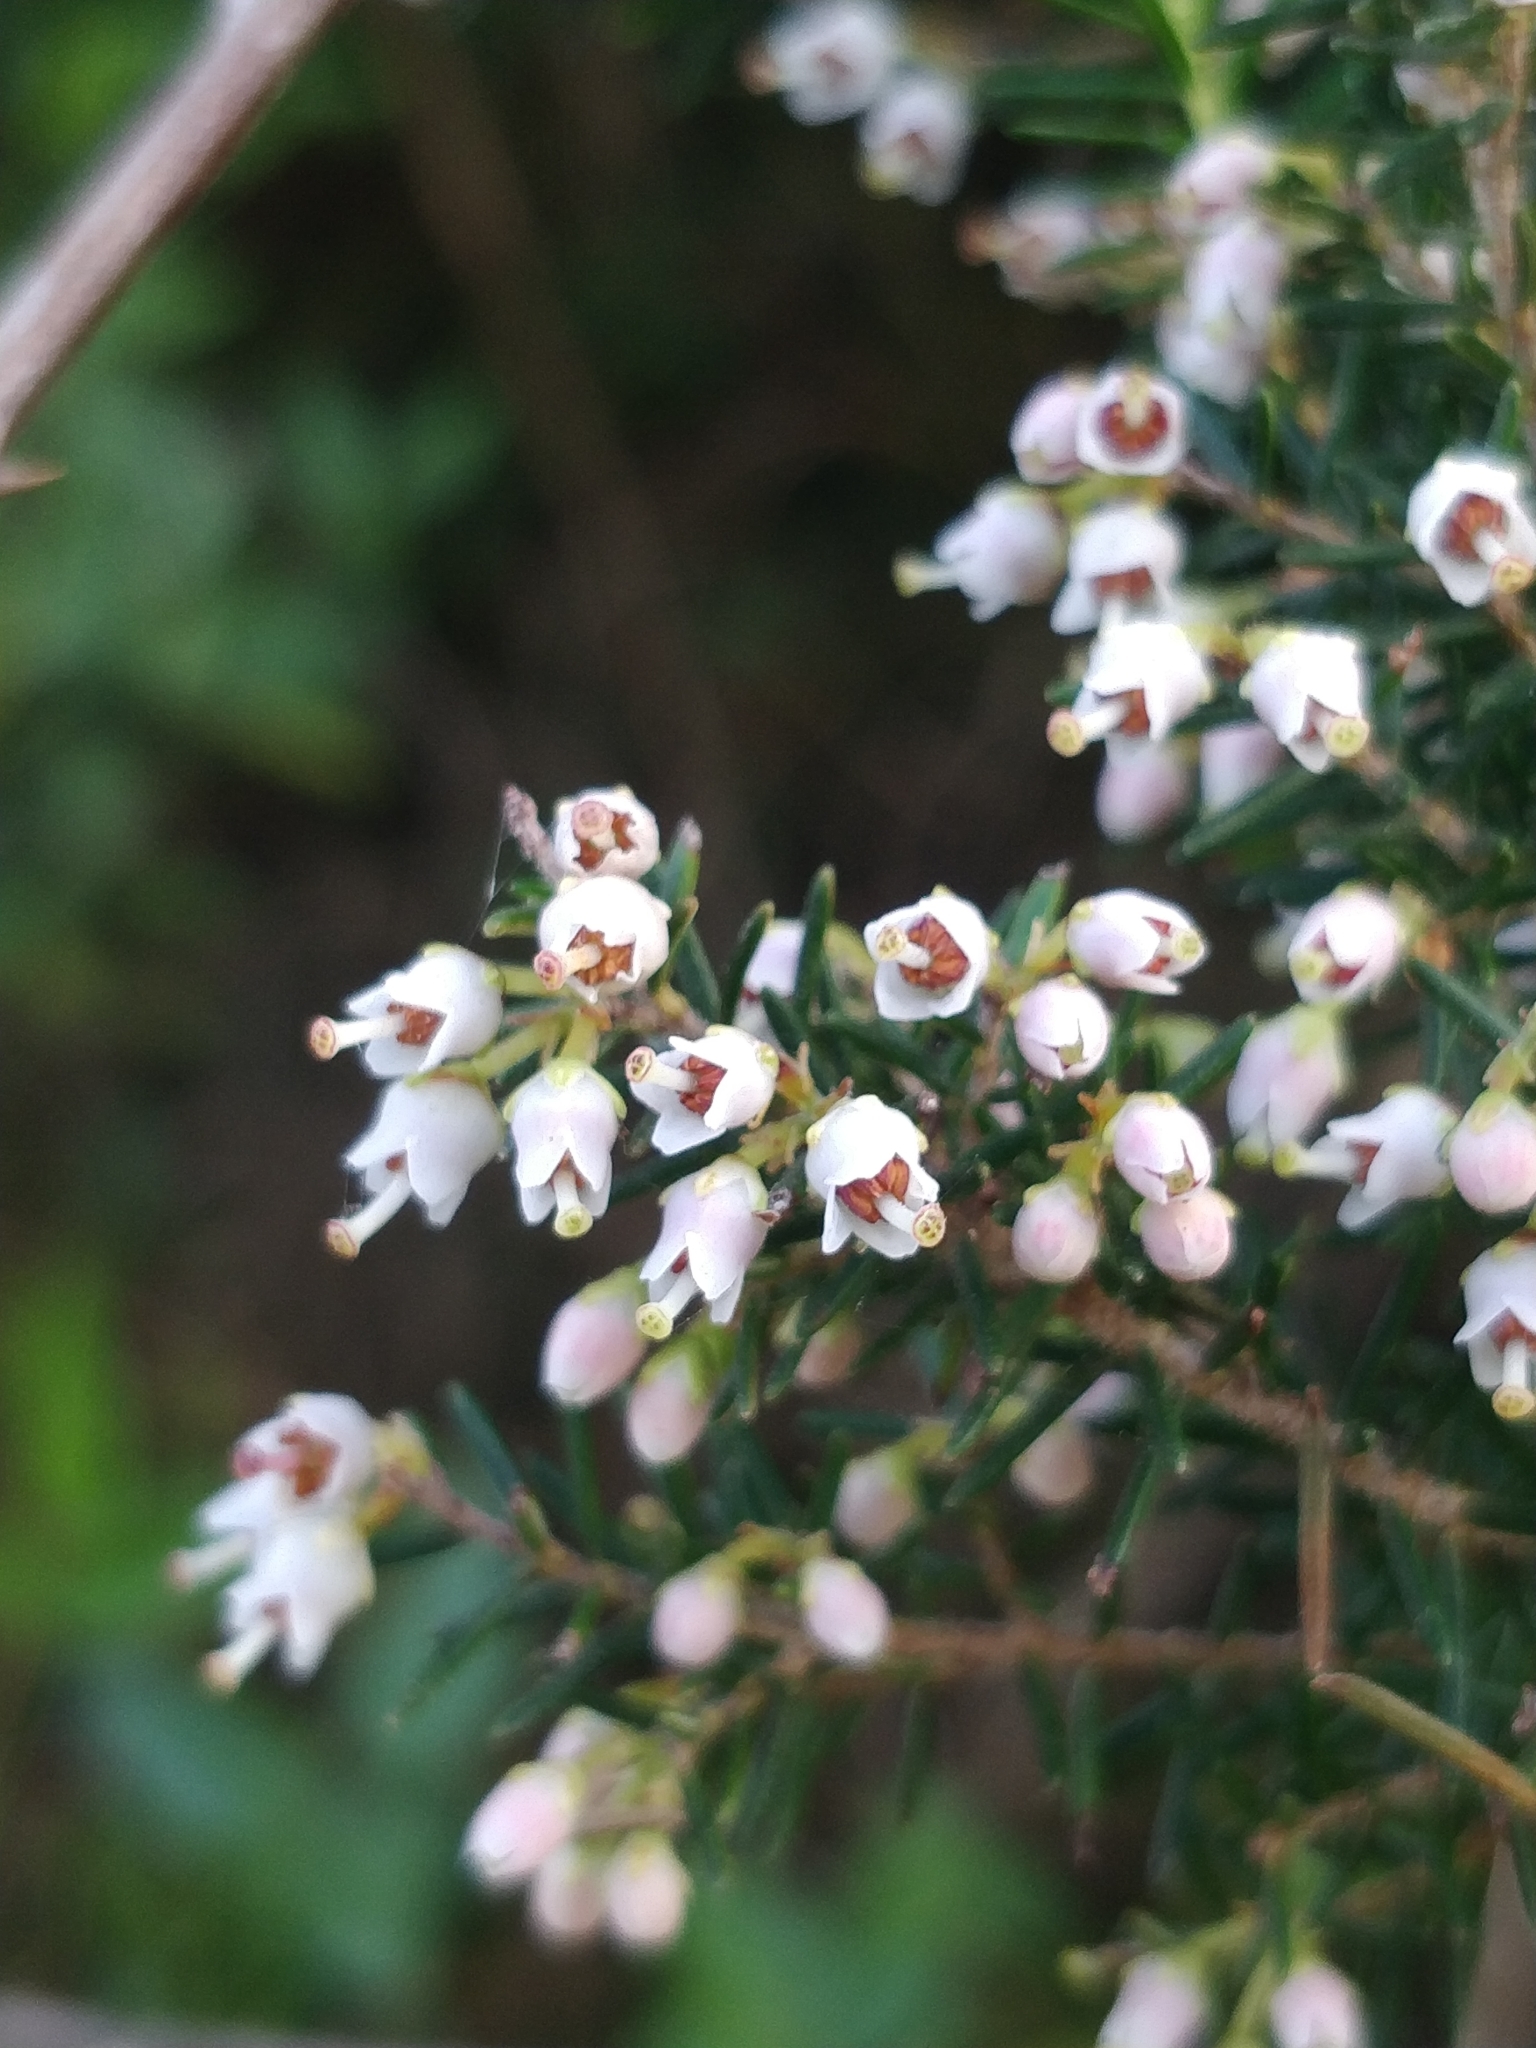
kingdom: Plantae
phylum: Tracheophyta
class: Magnoliopsida
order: Ericales
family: Ericaceae
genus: Erica
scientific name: Erica canariensis
